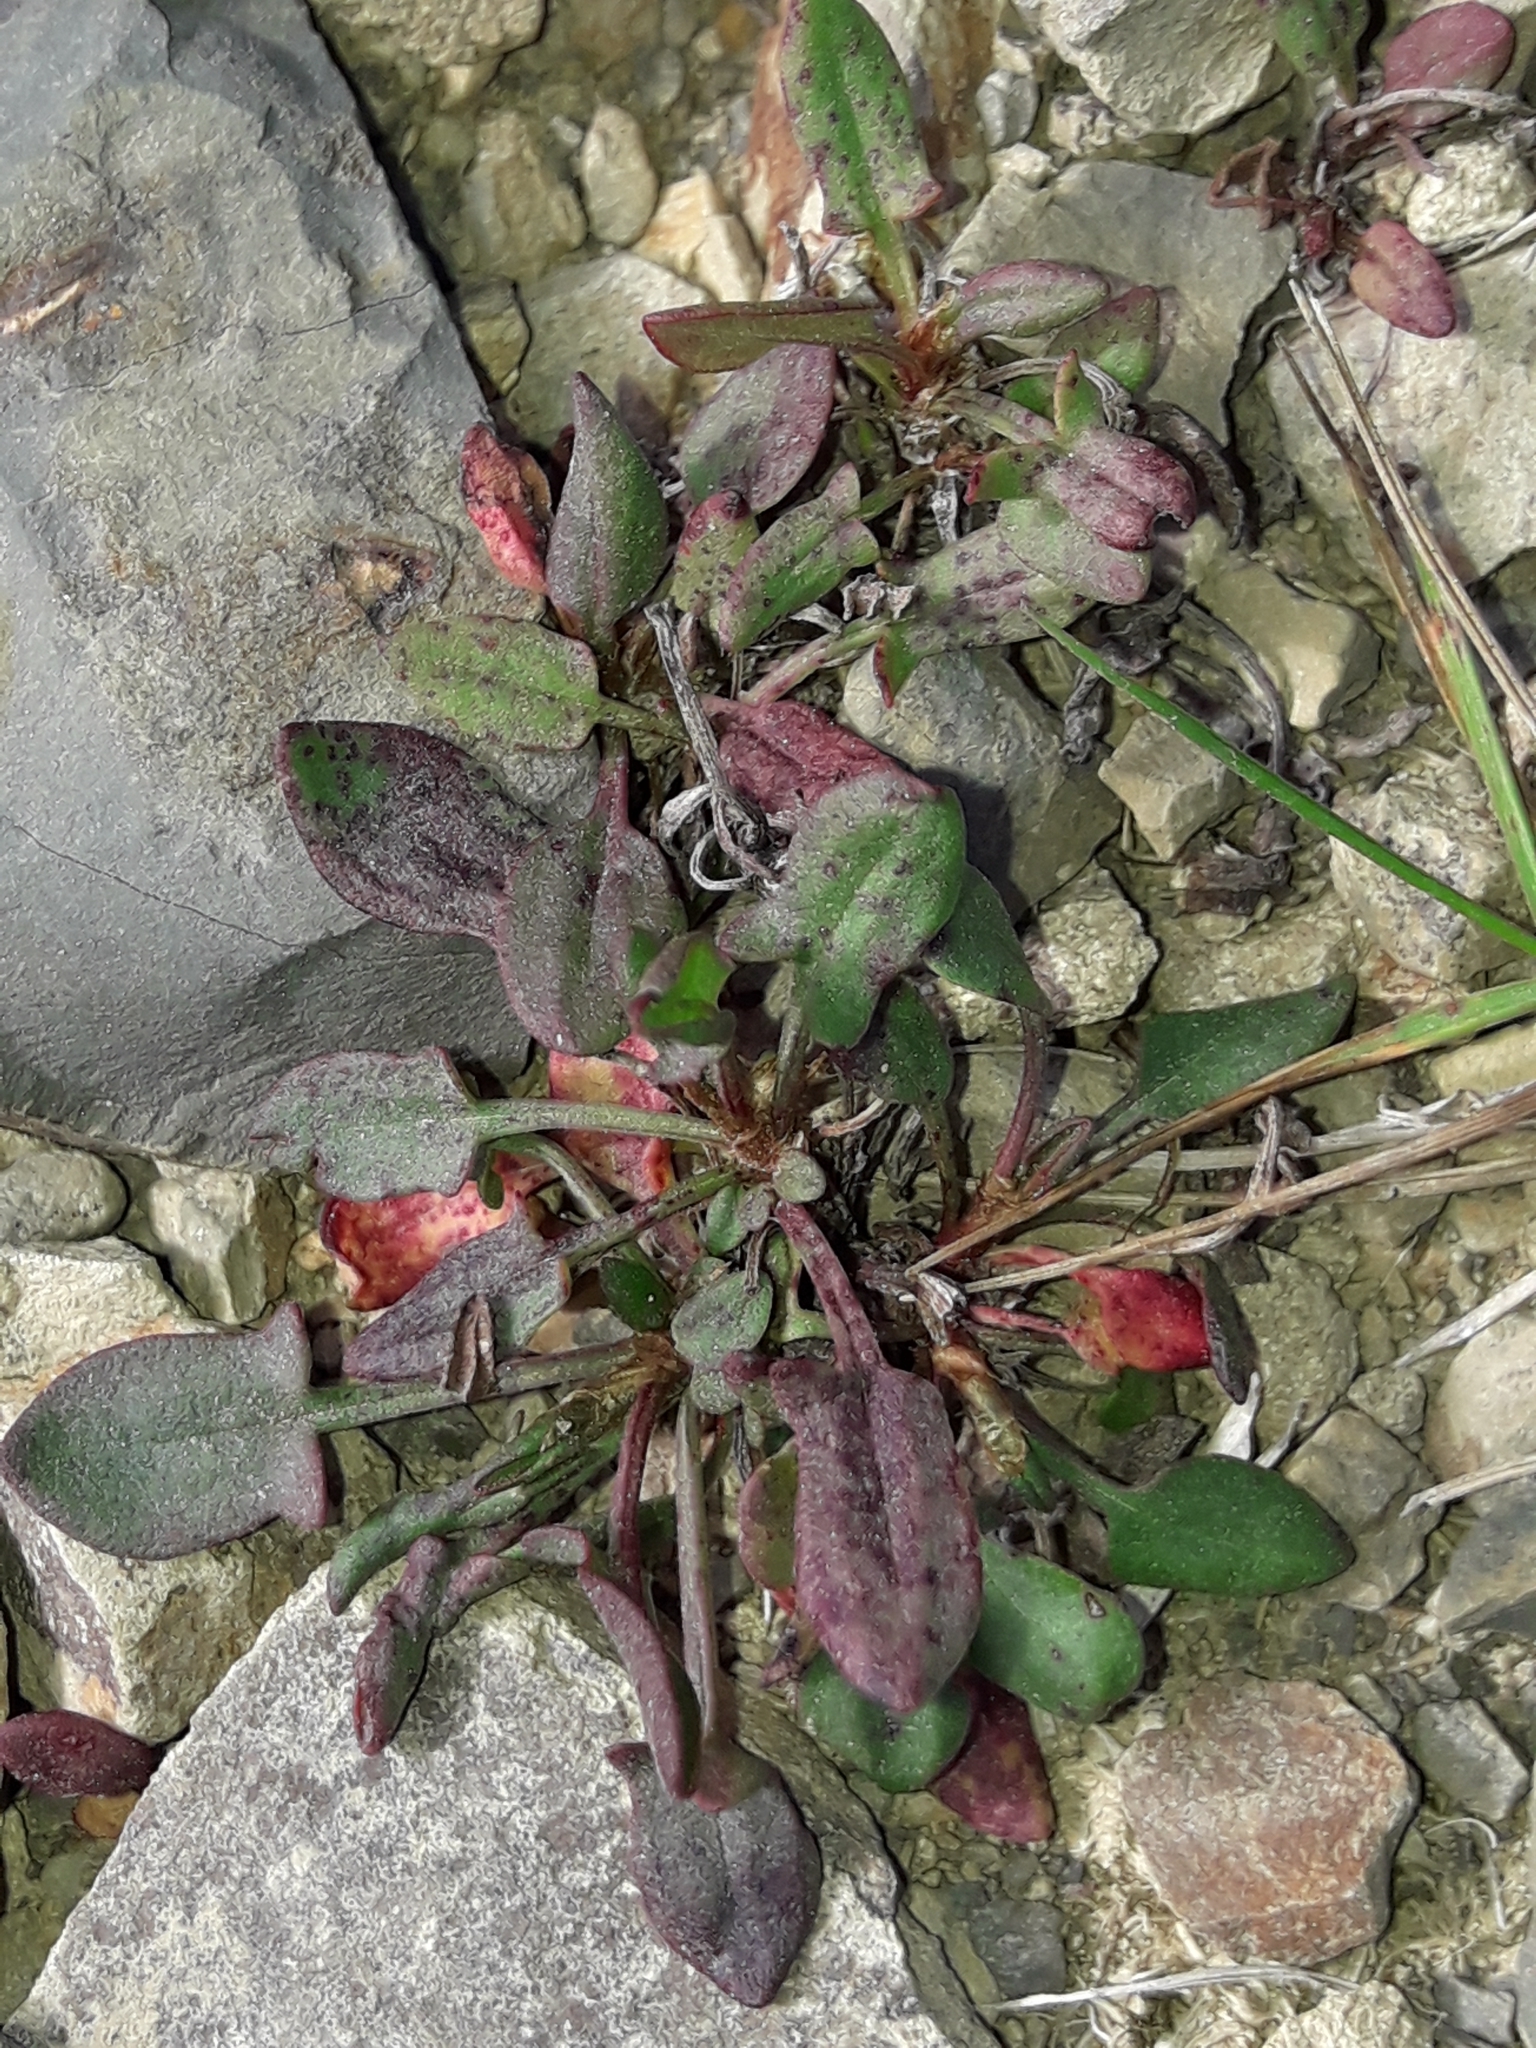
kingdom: Plantae
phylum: Tracheophyta
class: Magnoliopsida
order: Caryophyllales
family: Polygonaceae
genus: Rumex
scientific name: Rumex acetosella
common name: Common sheep sorrel
